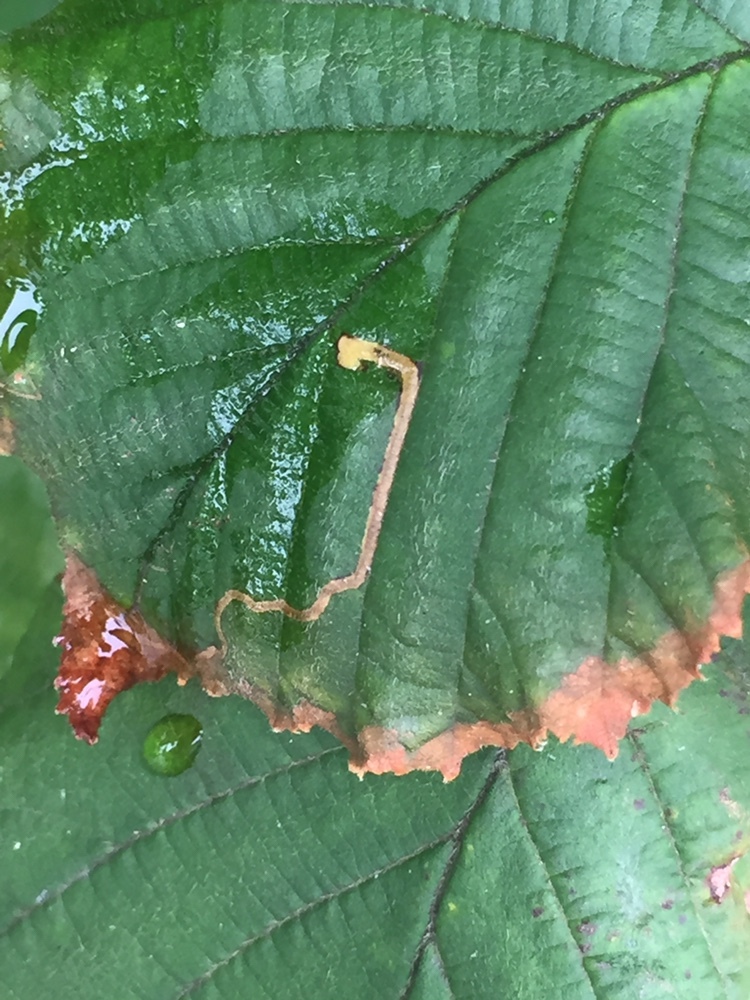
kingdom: Animalia
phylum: Arthropoda
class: Insecta
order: Lepidoptera
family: Nepticulidae
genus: Stigmella
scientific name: Stigmella microtheriella
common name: Nut-tree pigmy
